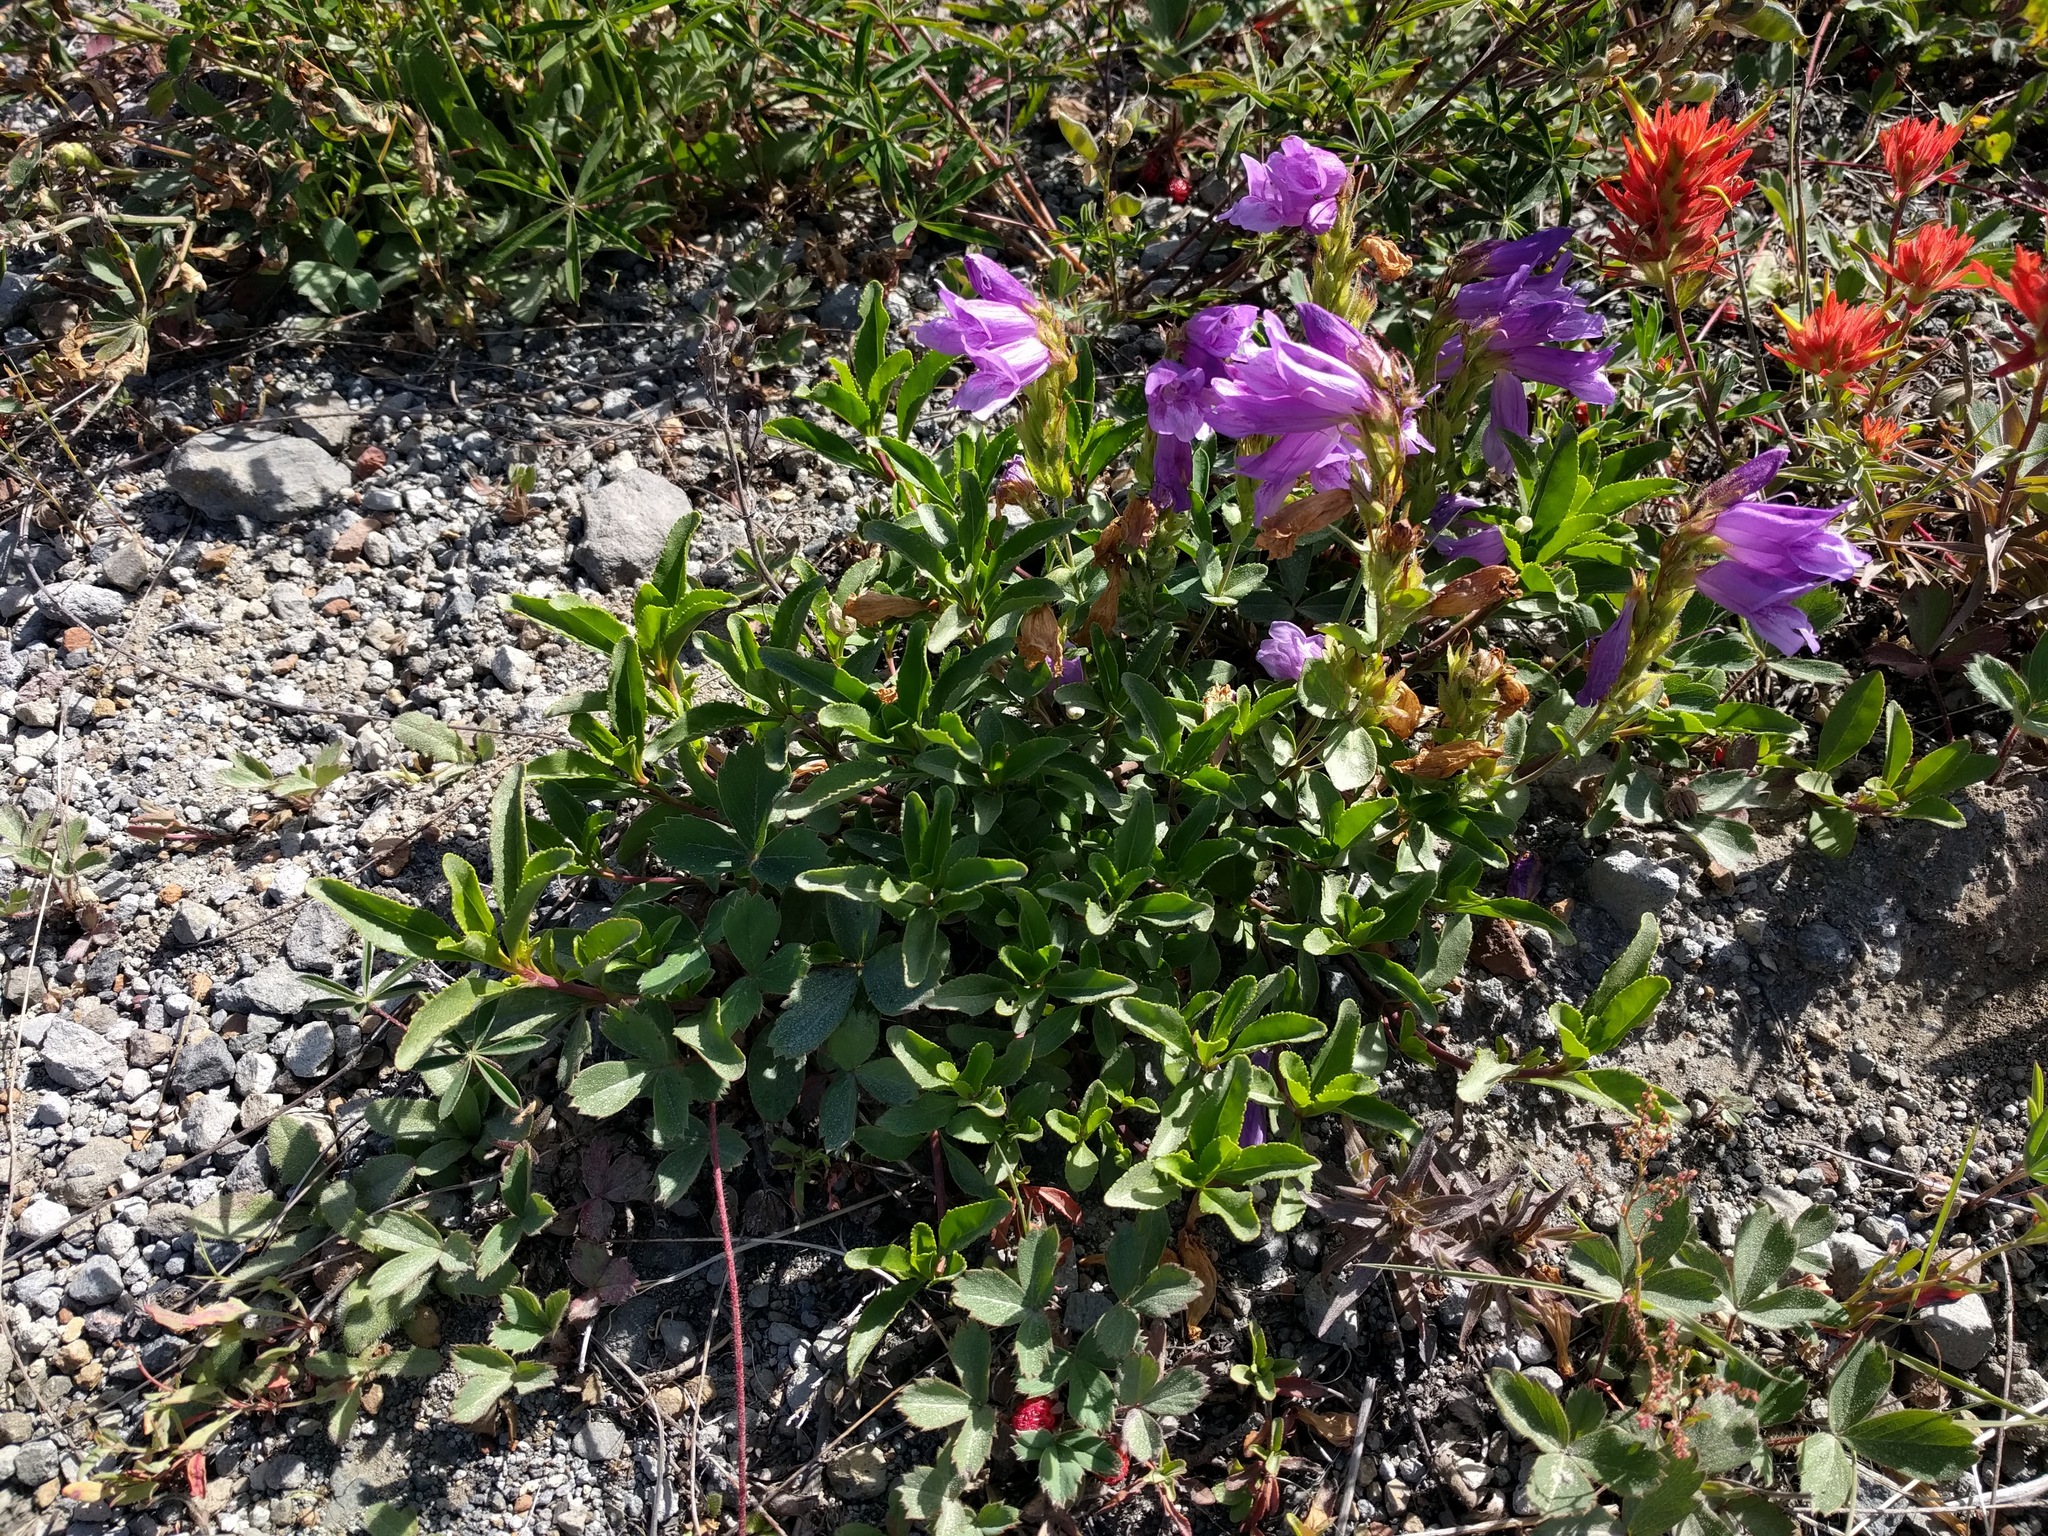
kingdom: Plantae
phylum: Tracheophyta
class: Magnoliopsida
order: Lamiales
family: Plantaginaceae
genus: Penstemon
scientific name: Penstemon cardwellii
